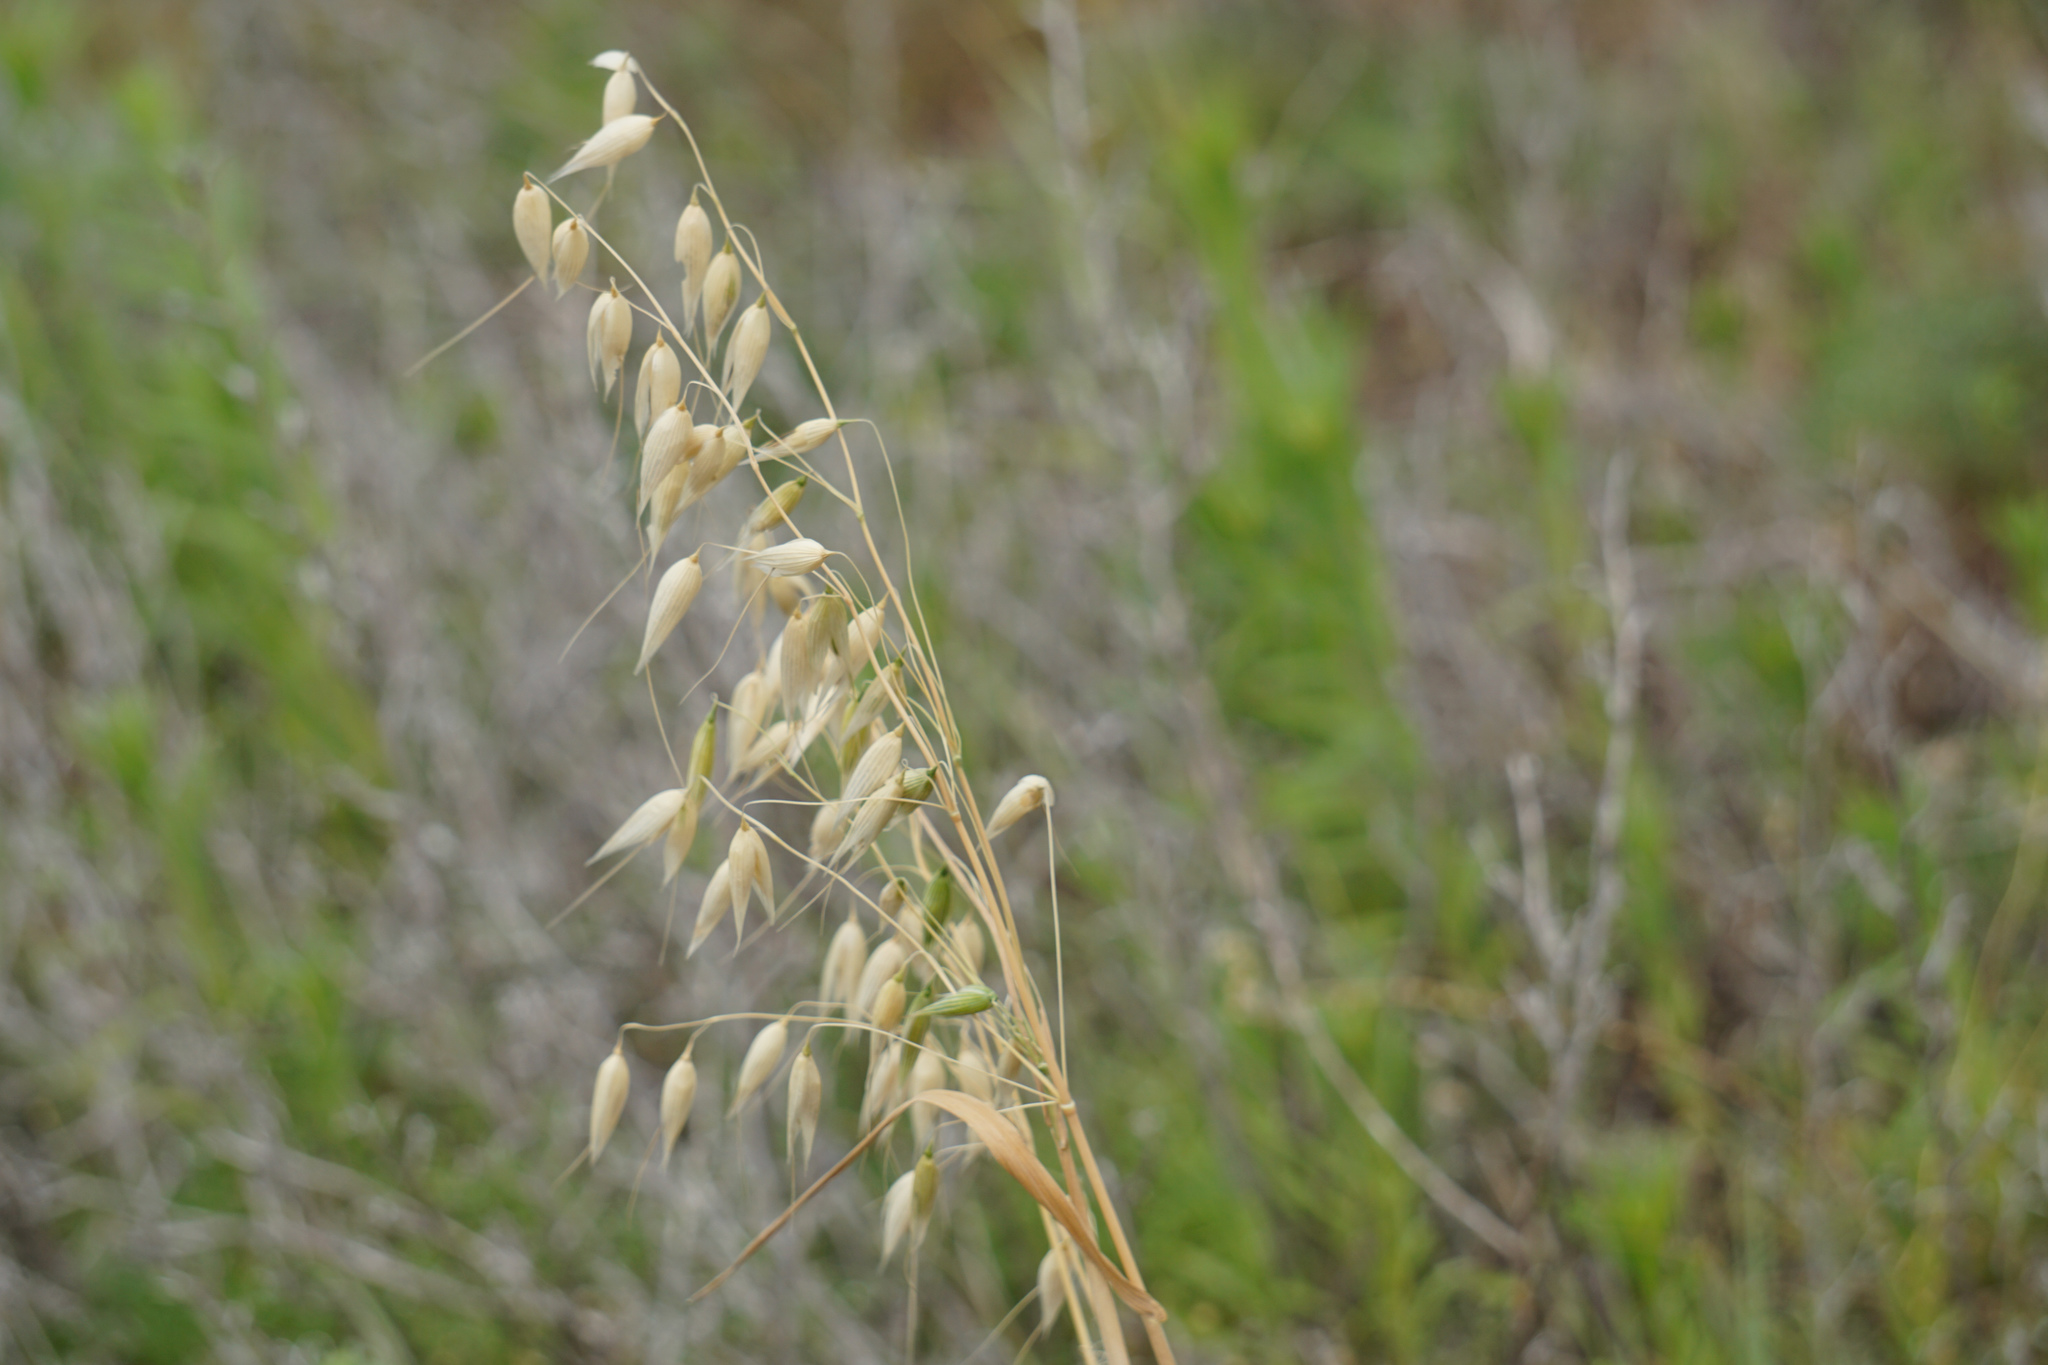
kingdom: Plantae
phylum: Tracheophyta
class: Liliopsida
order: Poales
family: Poaceae
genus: Avena
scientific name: Avena fatua
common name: Wild oat
